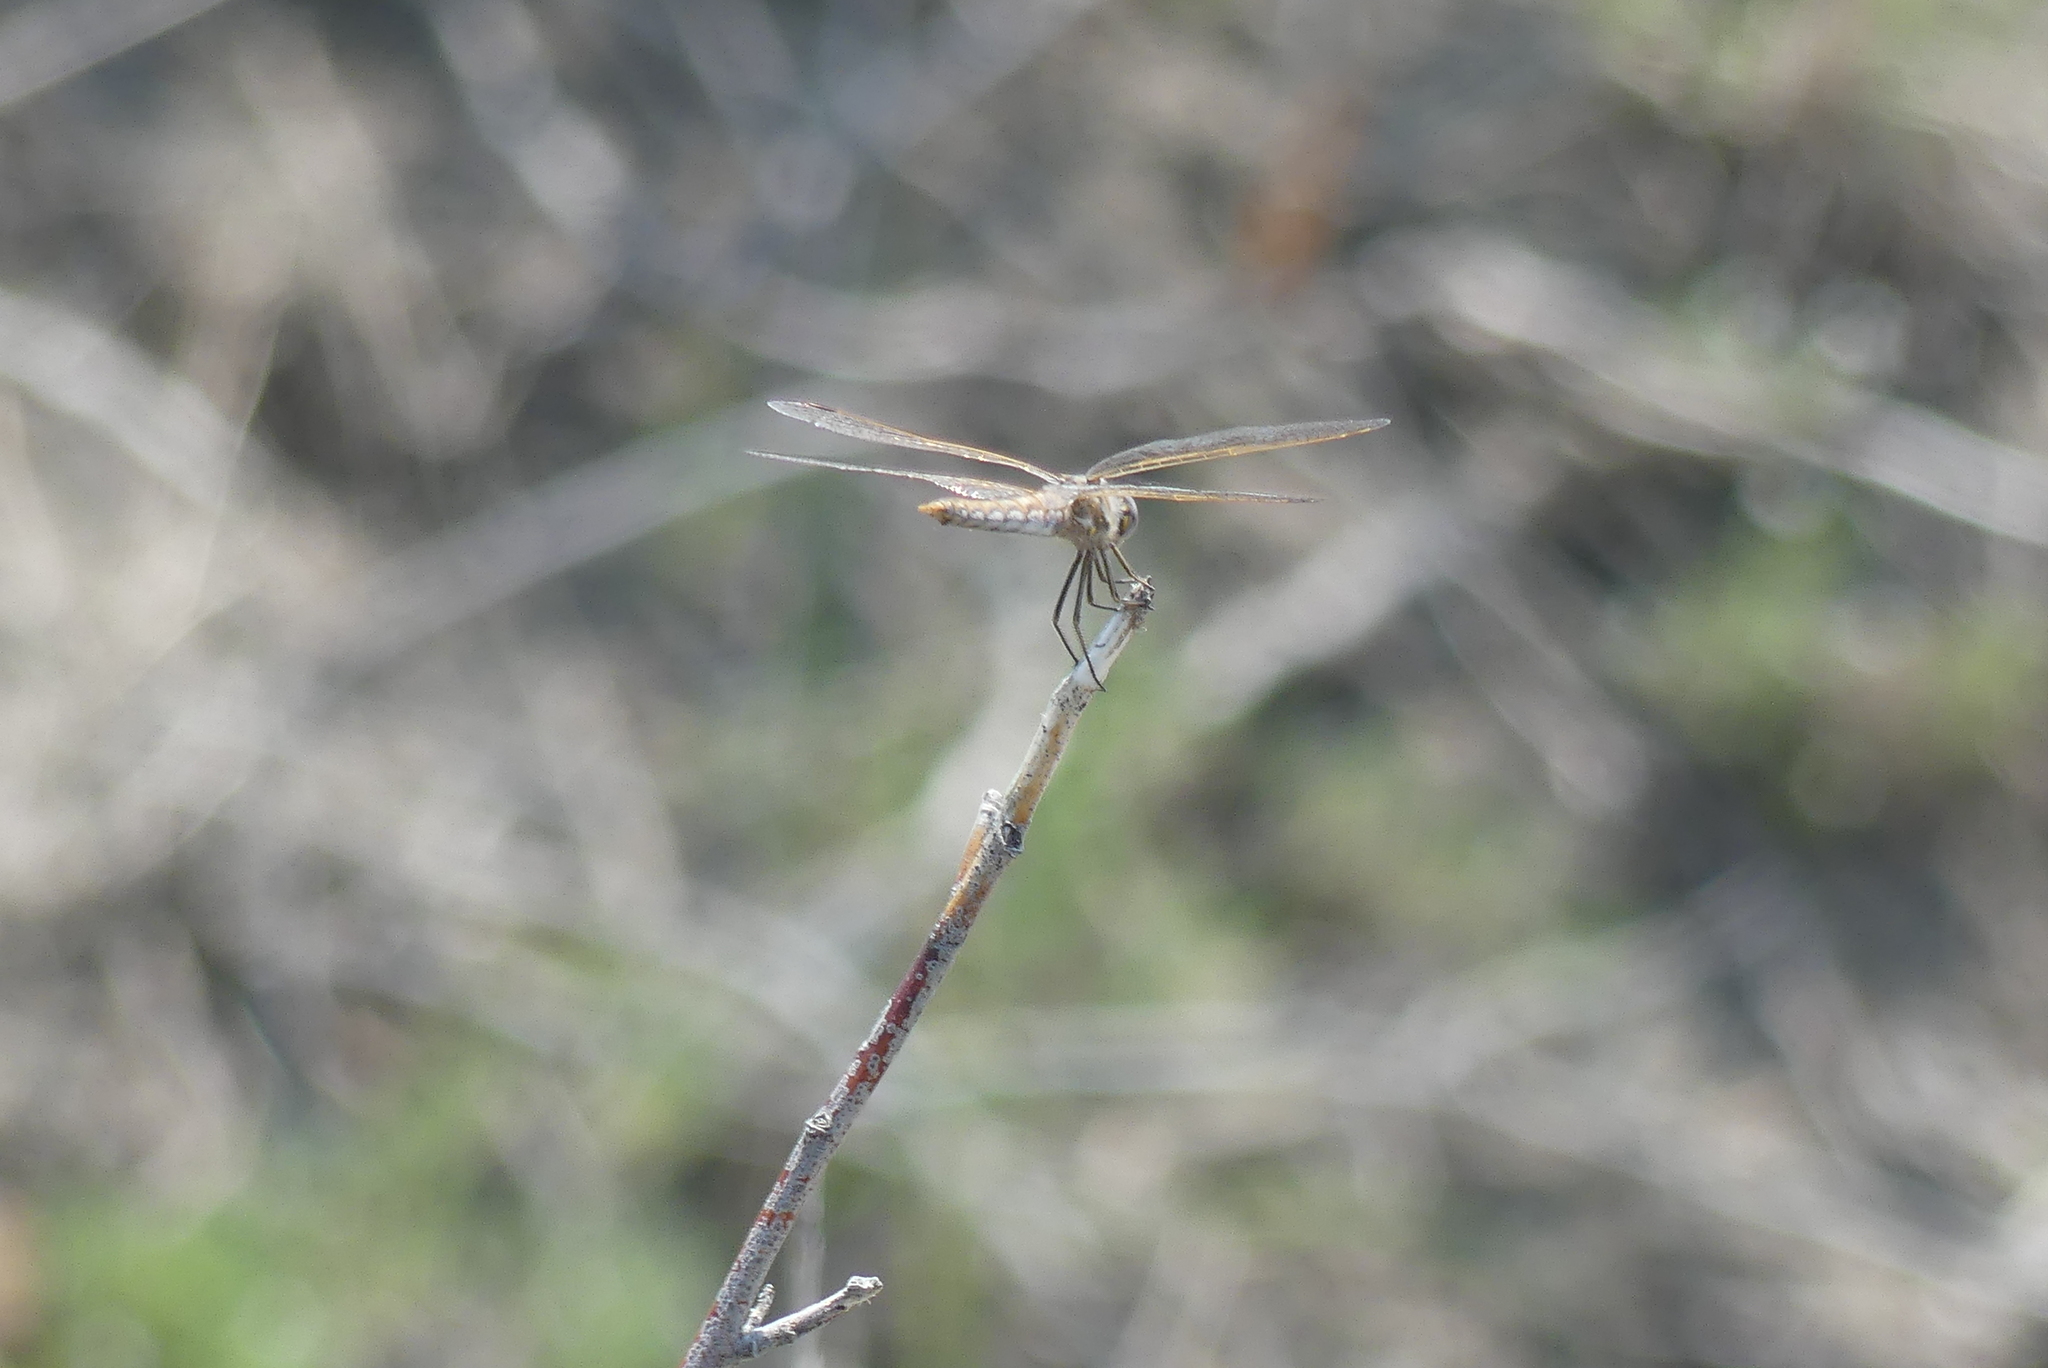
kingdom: Animalia
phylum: Arthropoda
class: Insecta
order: Odonata
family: Libellulidae
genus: Sympetrum
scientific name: Sympetrum corruptum
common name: Variegated meadowhawk
